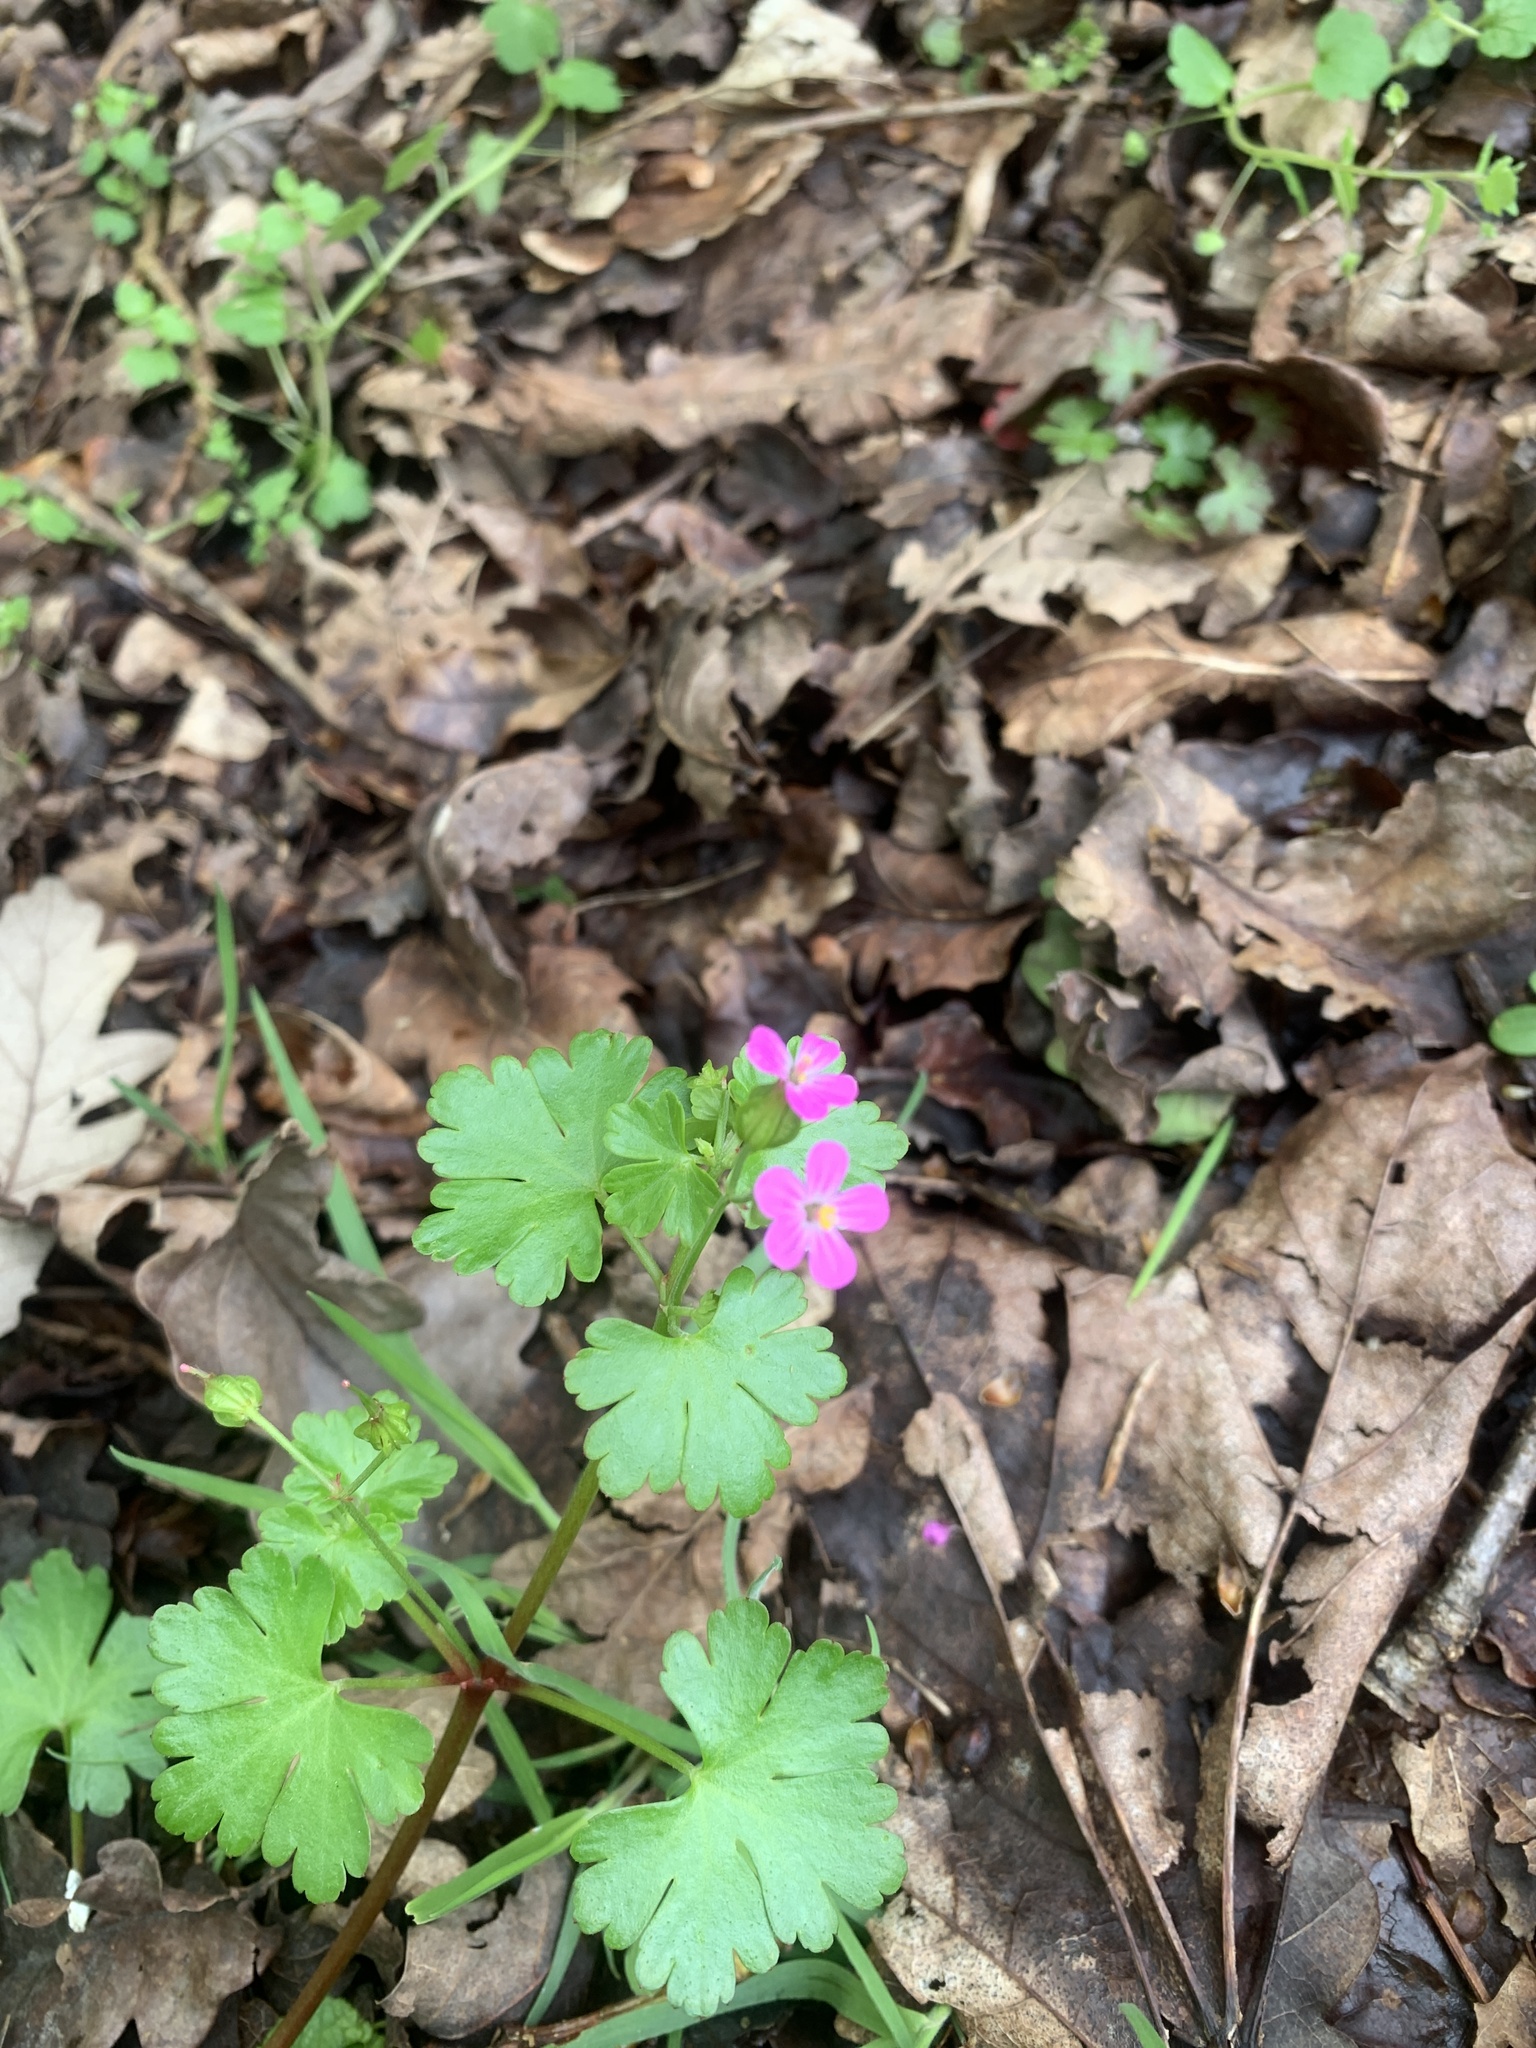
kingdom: Plantae
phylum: Tracheophyta
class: Magnoliopsida
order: Geraniales
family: Geraniaceae
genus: Geranium
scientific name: Geranium lucidum
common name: Shining crane's-bill
